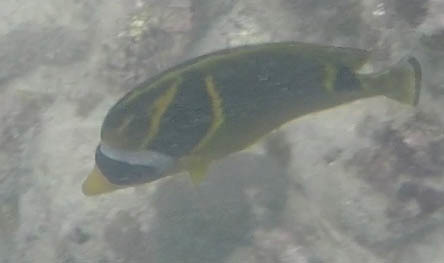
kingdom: Animalia
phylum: Chordata
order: Perciformes
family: Chaetodontidae
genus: Chaetodon
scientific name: Chaetodon lunula
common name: Raccoon butterflyfish
